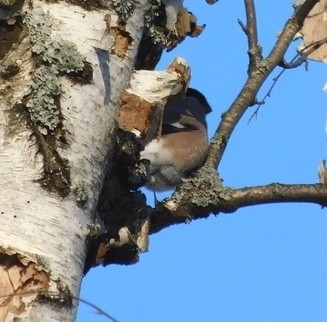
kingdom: Animalia
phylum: Chordata
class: Aves
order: Passeriformes
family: Fringillidae
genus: Pyrrhula
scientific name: Pyrrhula pyrrhula
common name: Eurasian bullfinch
